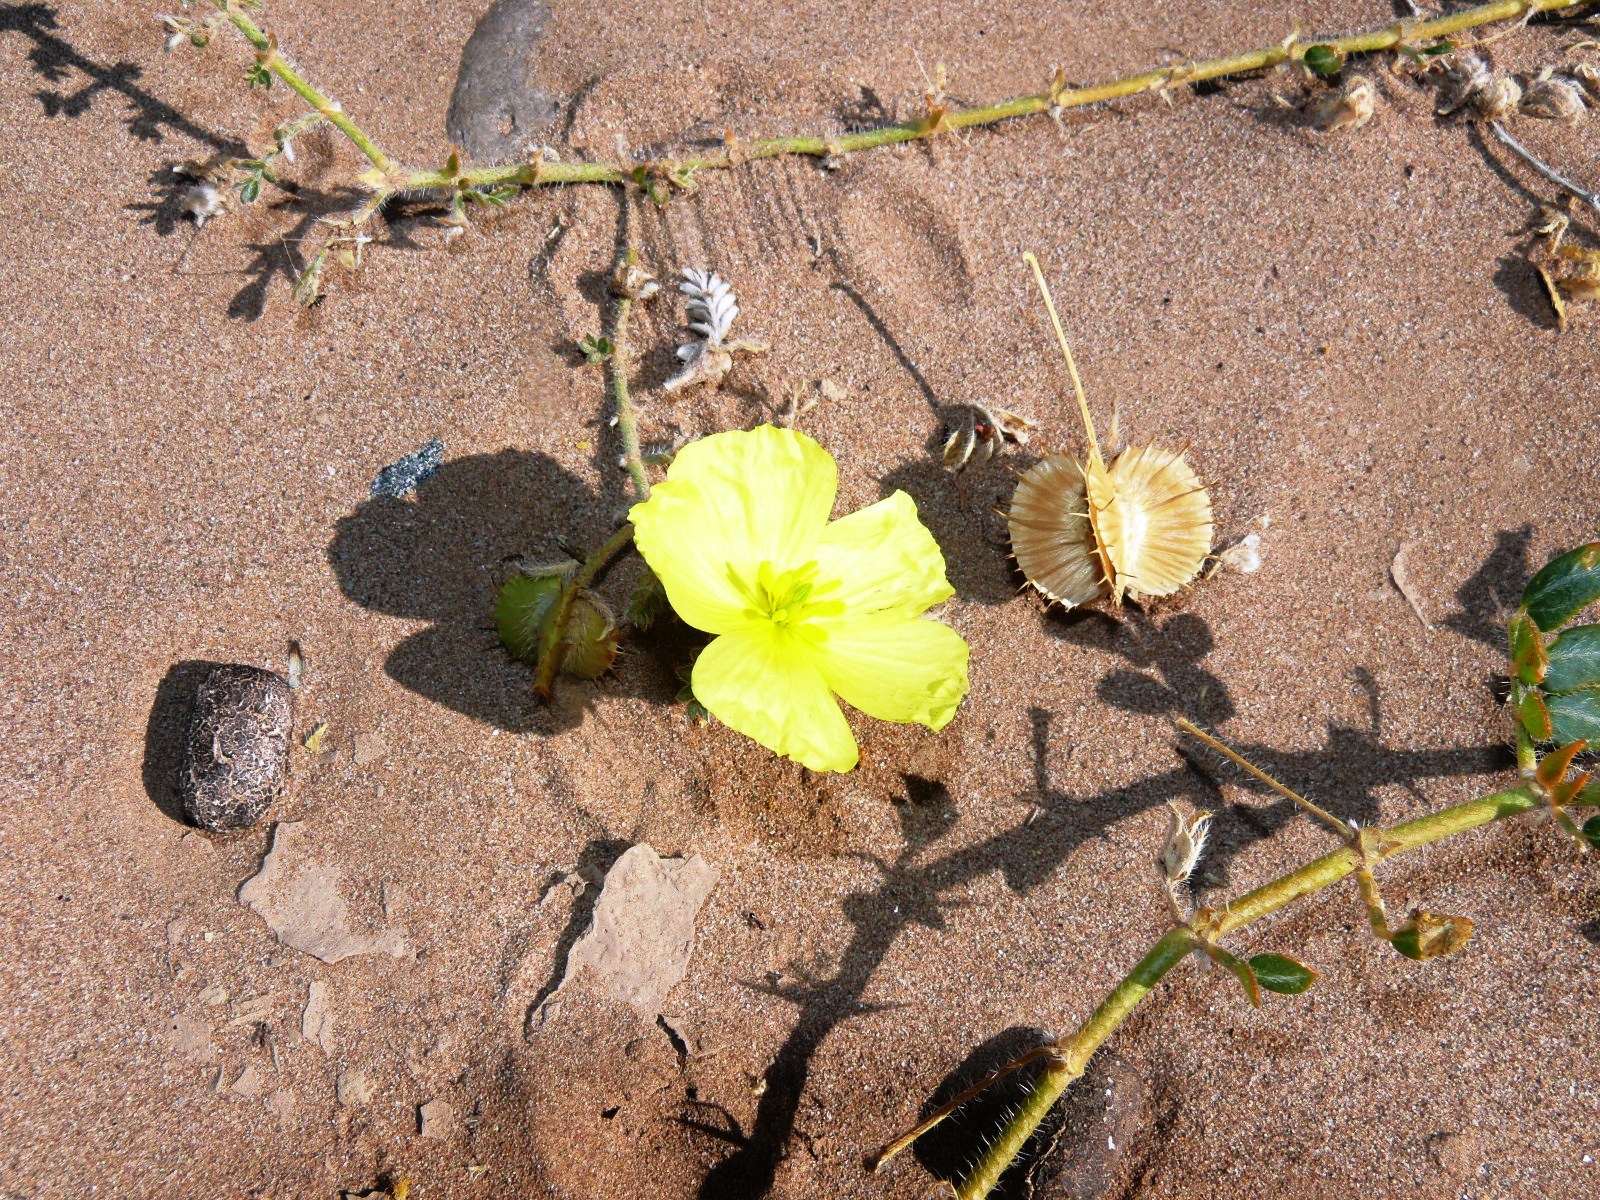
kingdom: Plantae
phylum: Tracheophyta
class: Magnoliopsida
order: Zygophyllales
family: Zygophyllaceae
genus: Tribulus
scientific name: Tribulus cristatus
